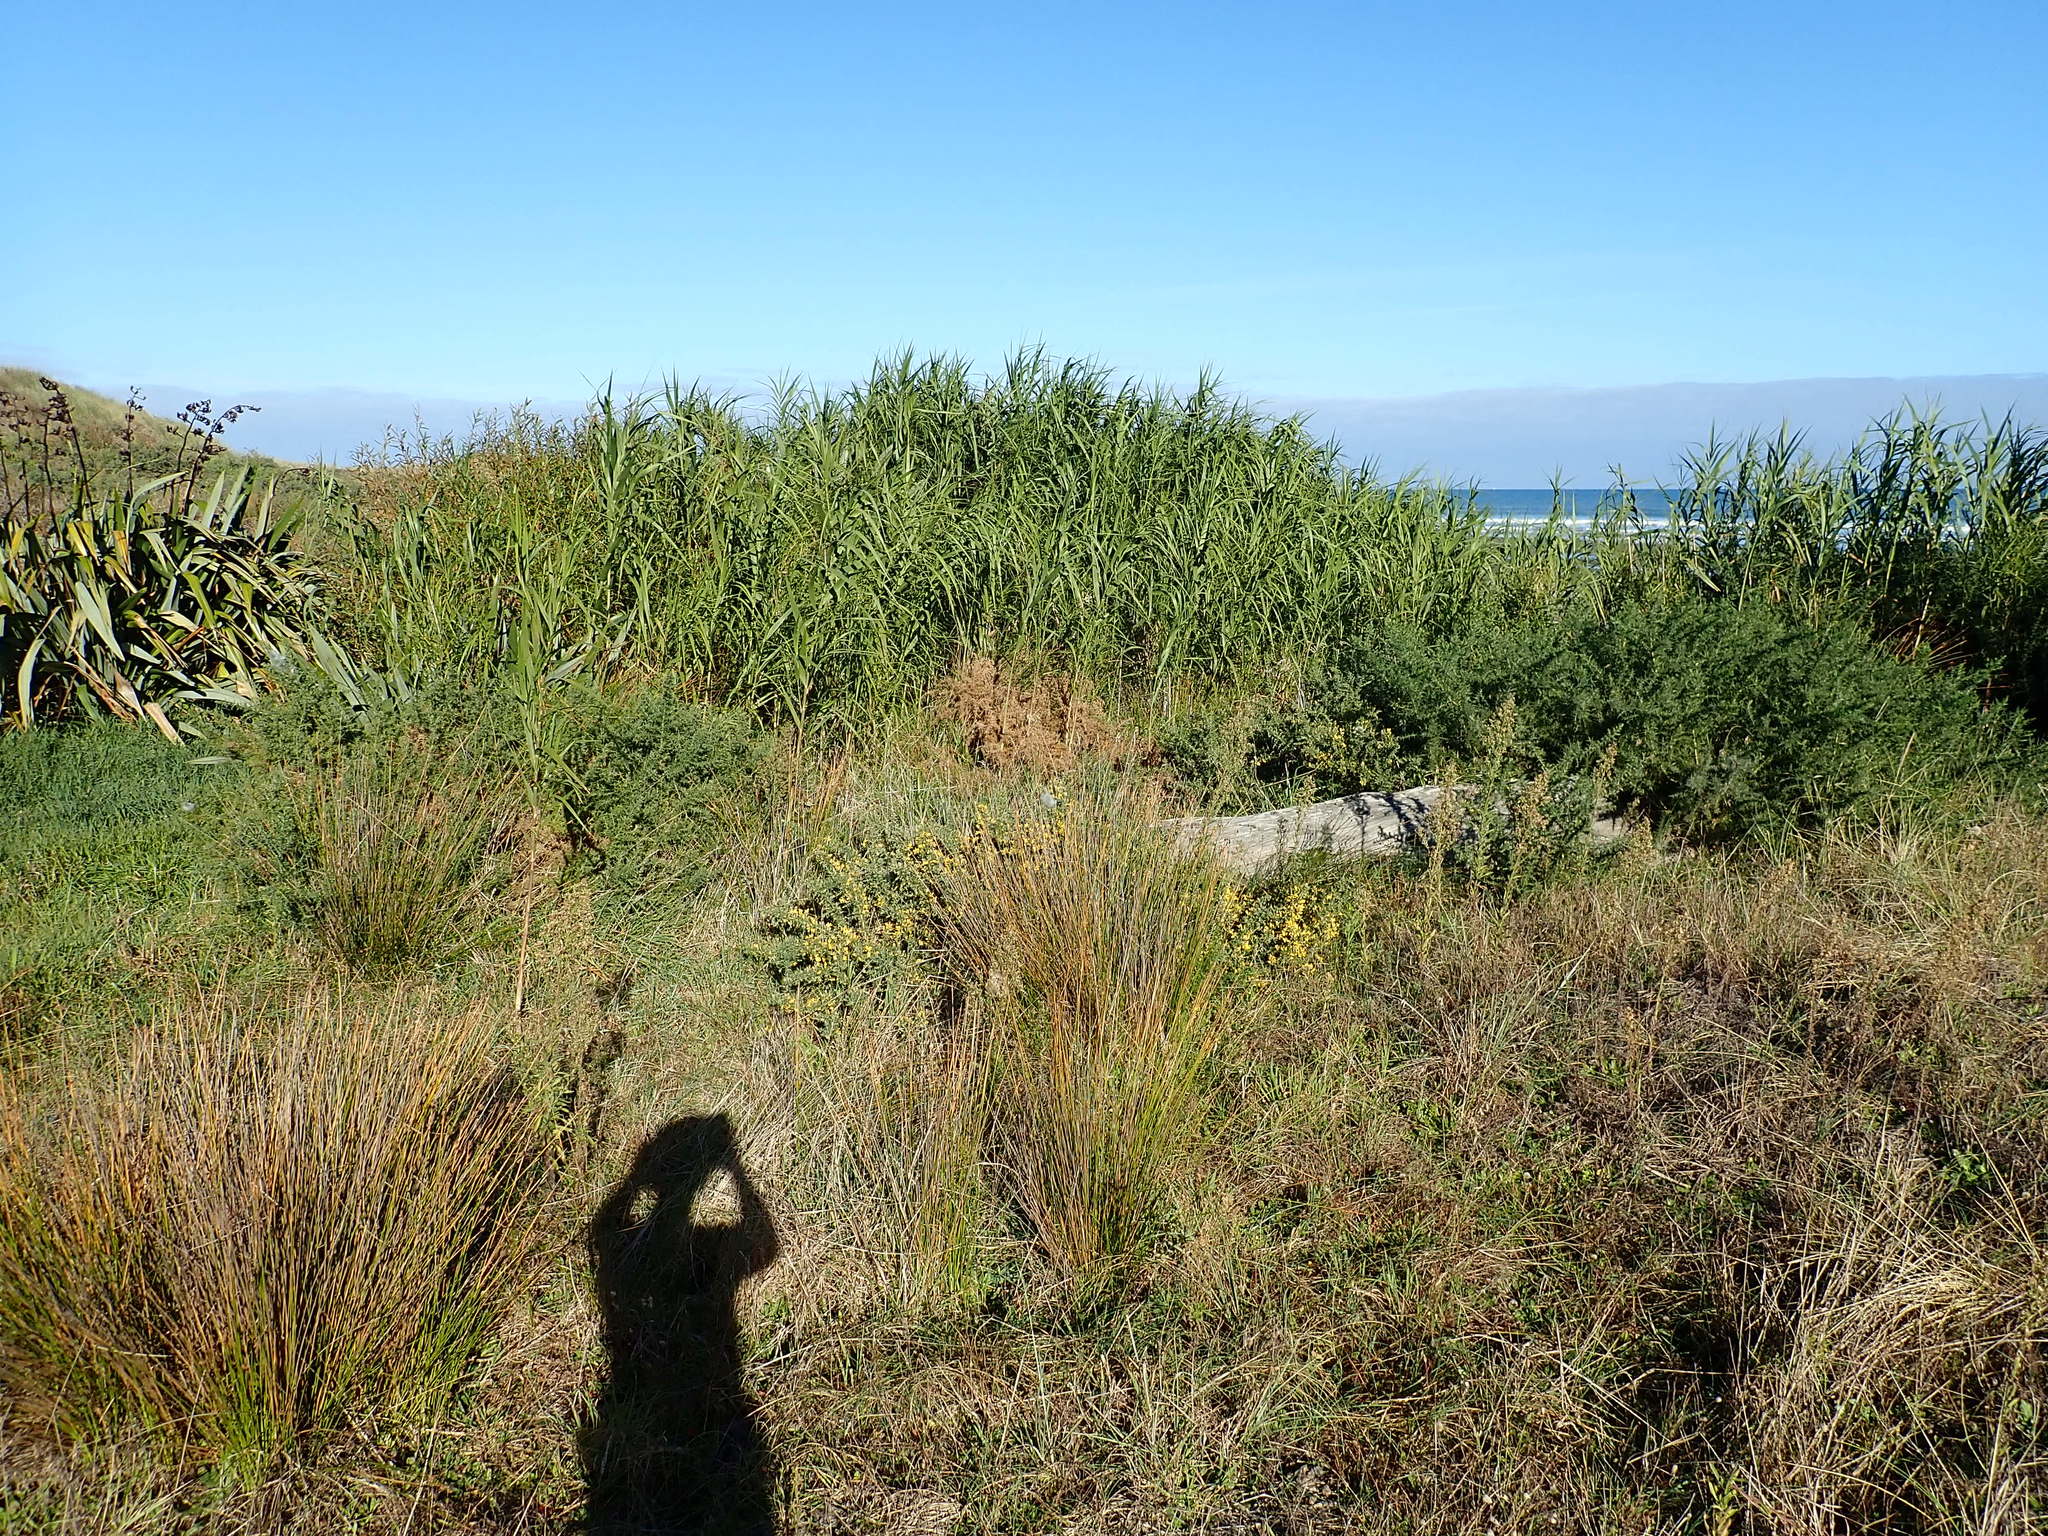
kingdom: Plantae
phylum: Tracheophyta
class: Liliopsida
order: Poales
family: Poaceae
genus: Phragmites
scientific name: Phragmites karka
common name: Tropical reed
